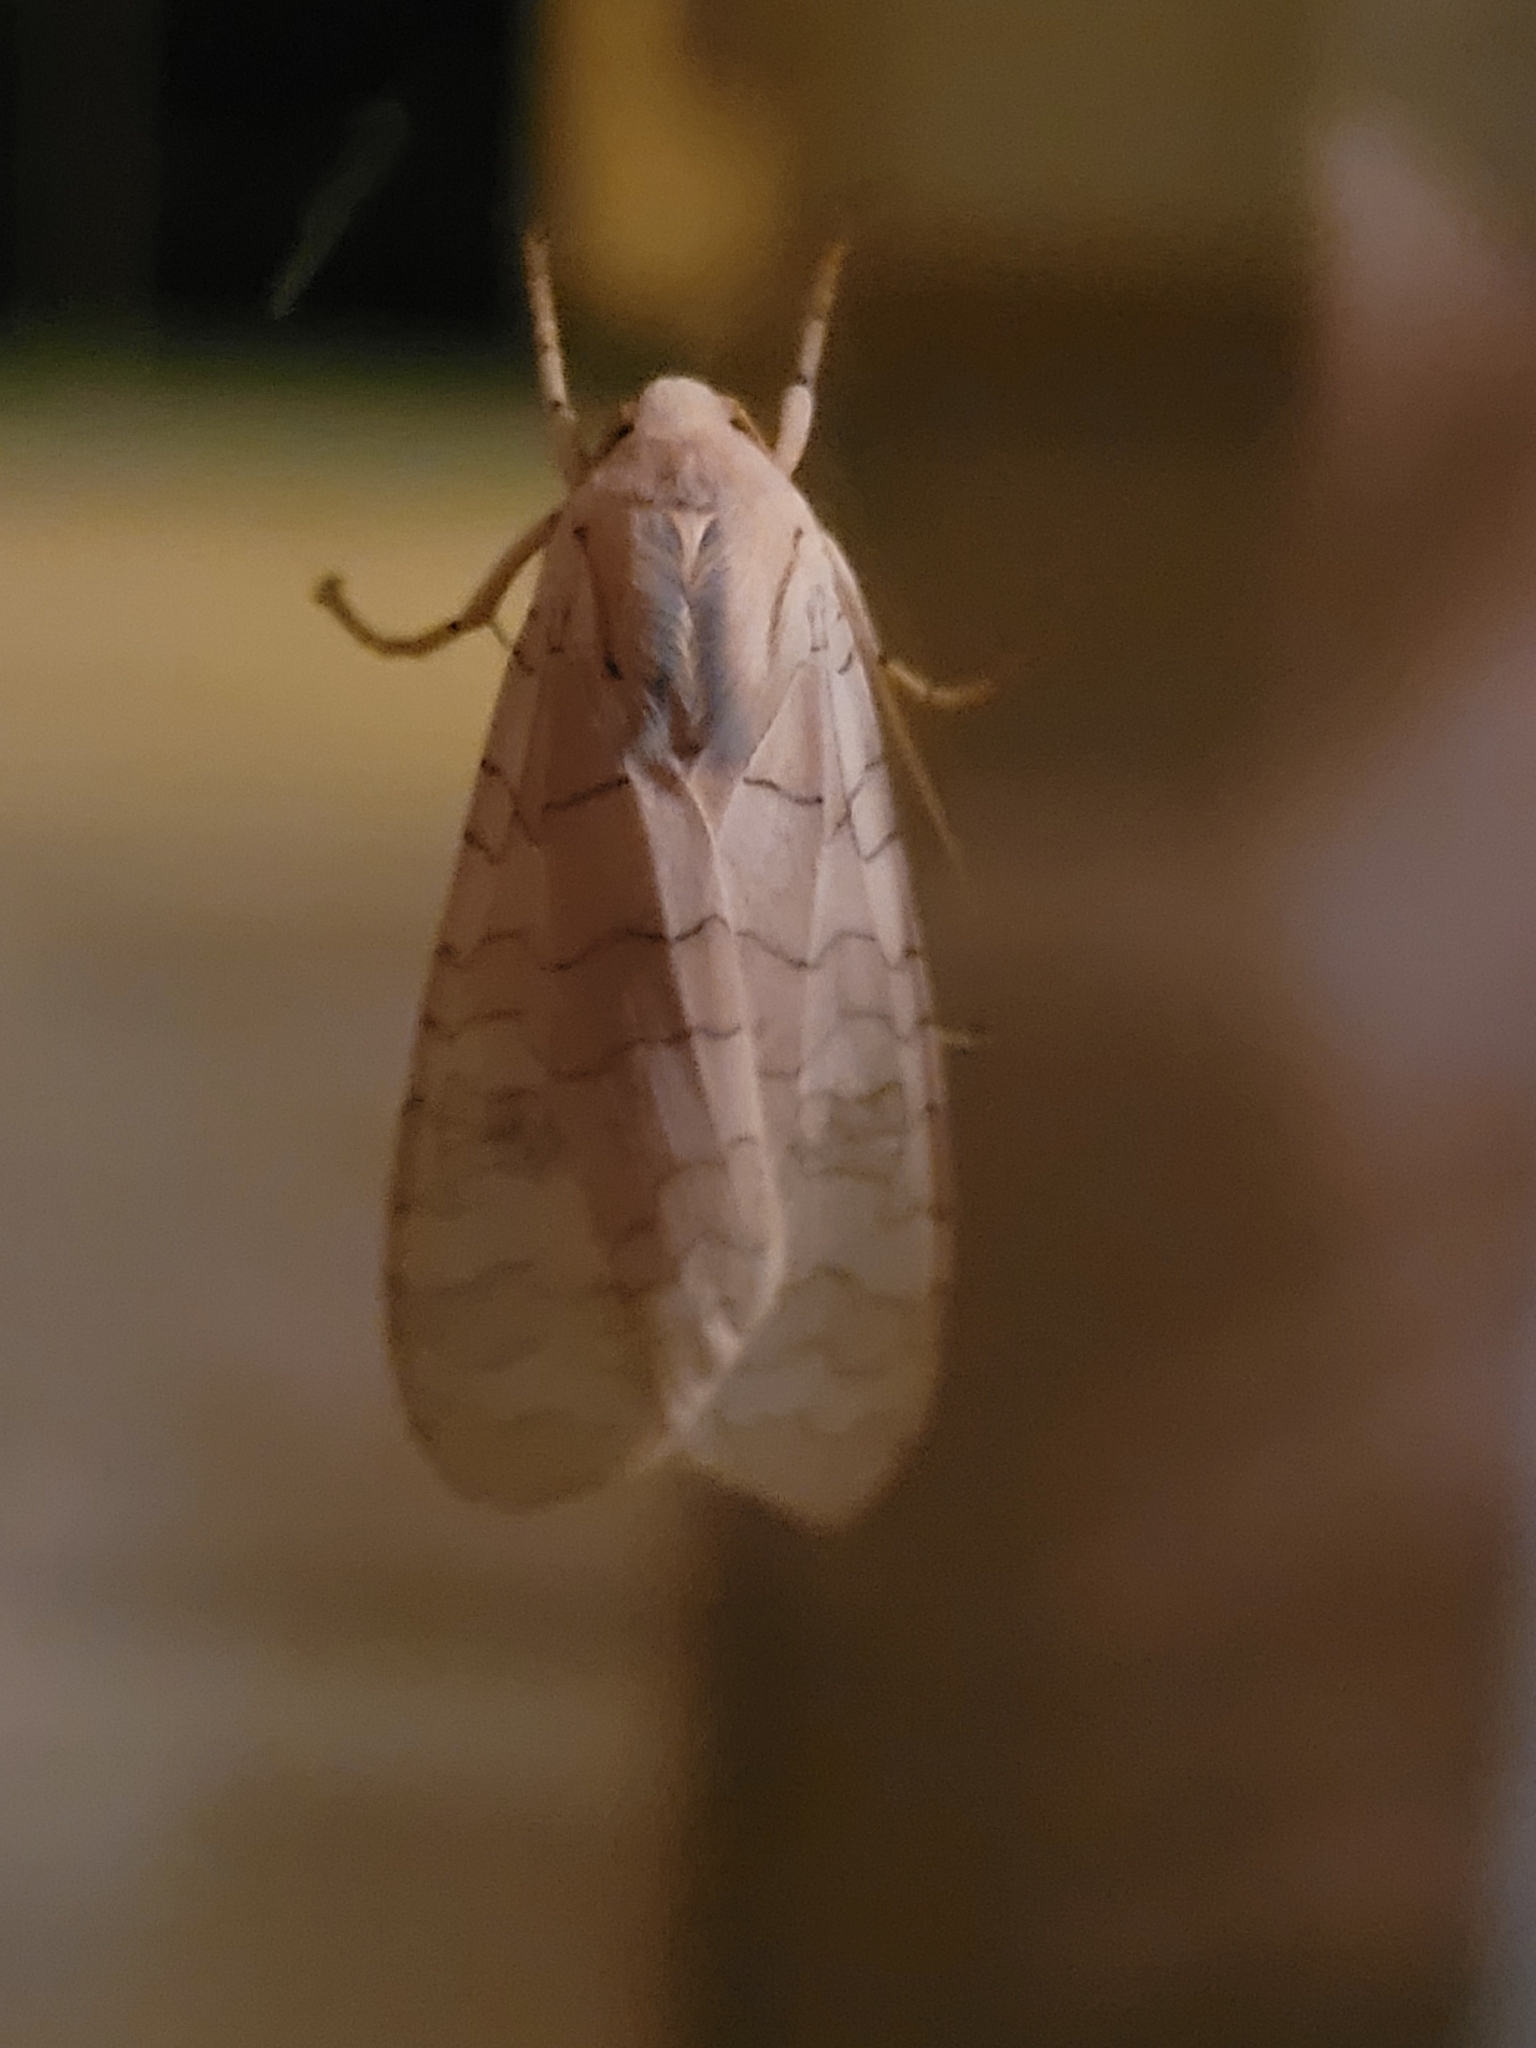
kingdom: Animalia
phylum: Arthropoda
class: Insecta
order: Lepidoptera
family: Erebidae
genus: Halysidota
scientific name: Halysidota
